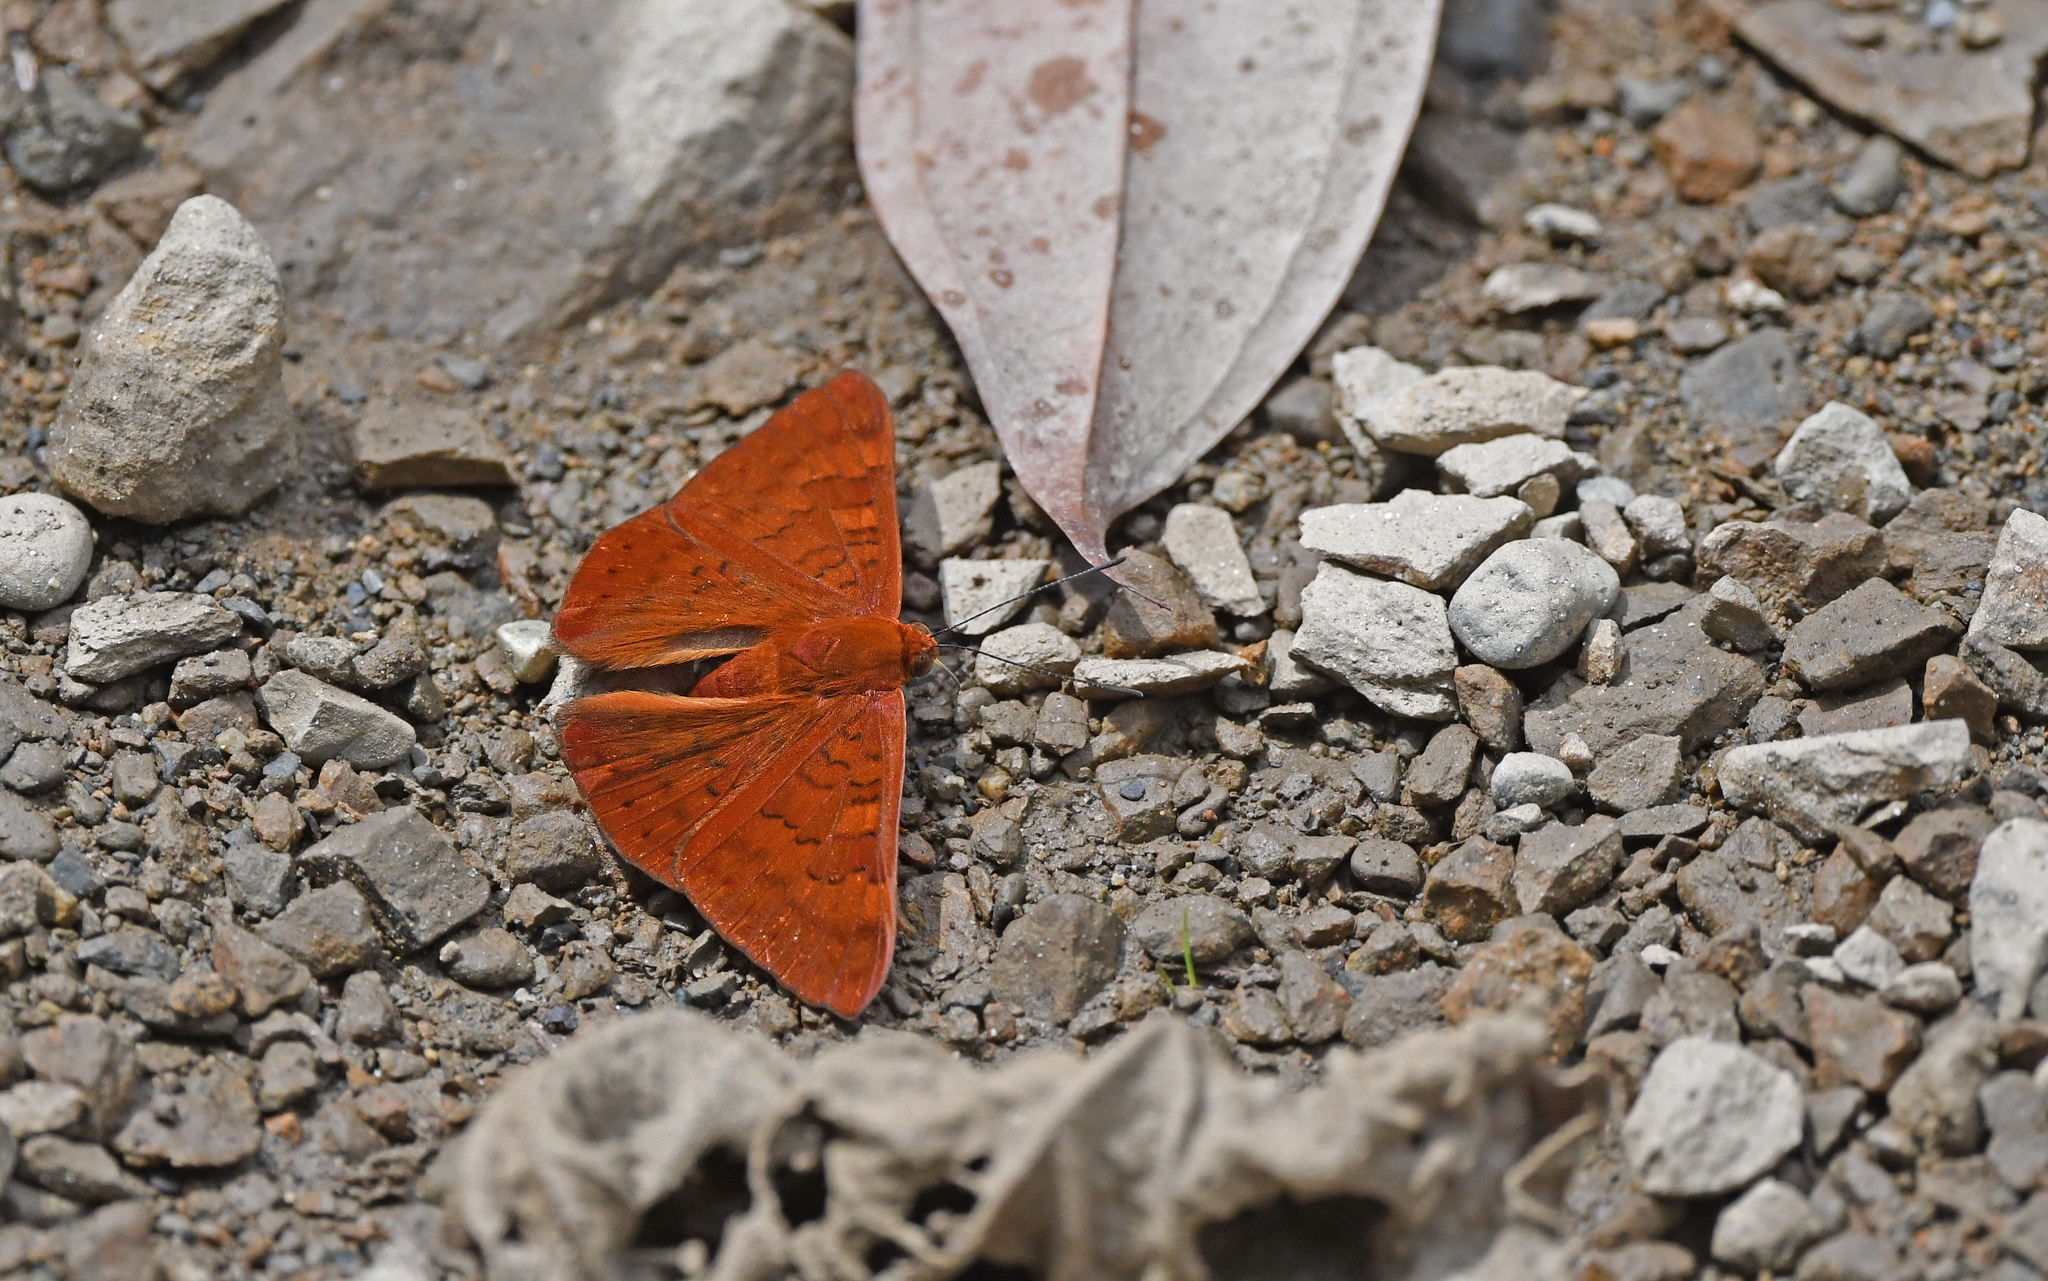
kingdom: Animalia
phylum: Arthropoda
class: Insecta
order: Lepidoptera
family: Lycaenidae
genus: Emesis
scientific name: Emesis mandana
